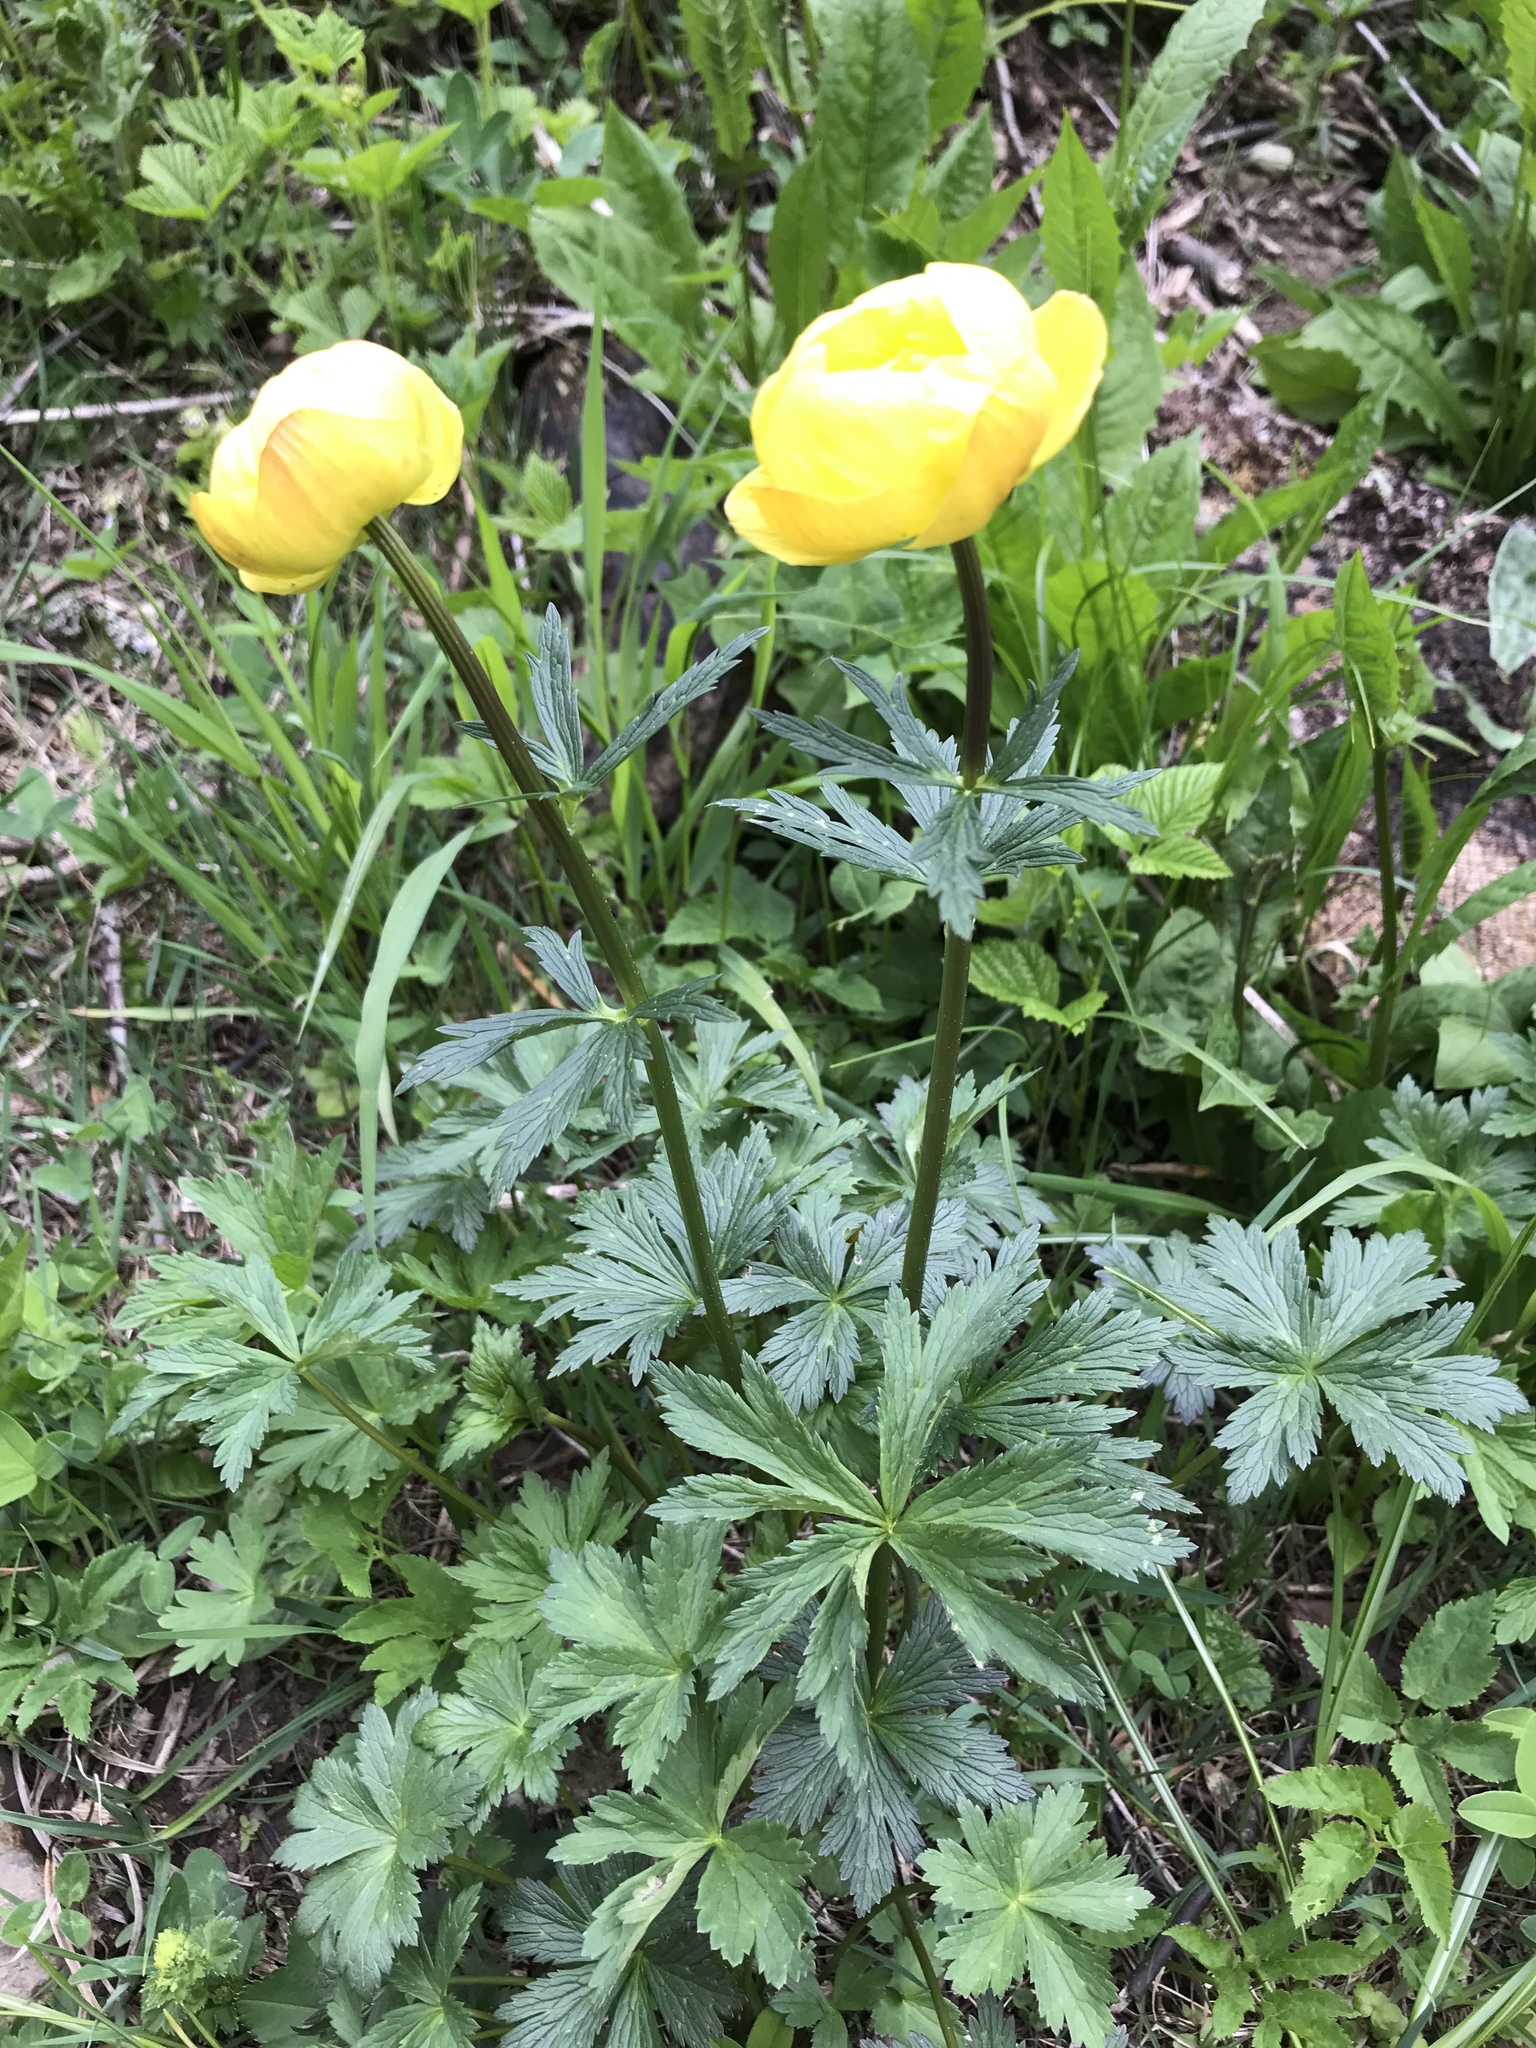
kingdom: Plantae
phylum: Tracheophyta
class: Magnoliopsida
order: Ranunculales
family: Ranunculaceae
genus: Trollius
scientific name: Trollius europaeus
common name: European globeflower
